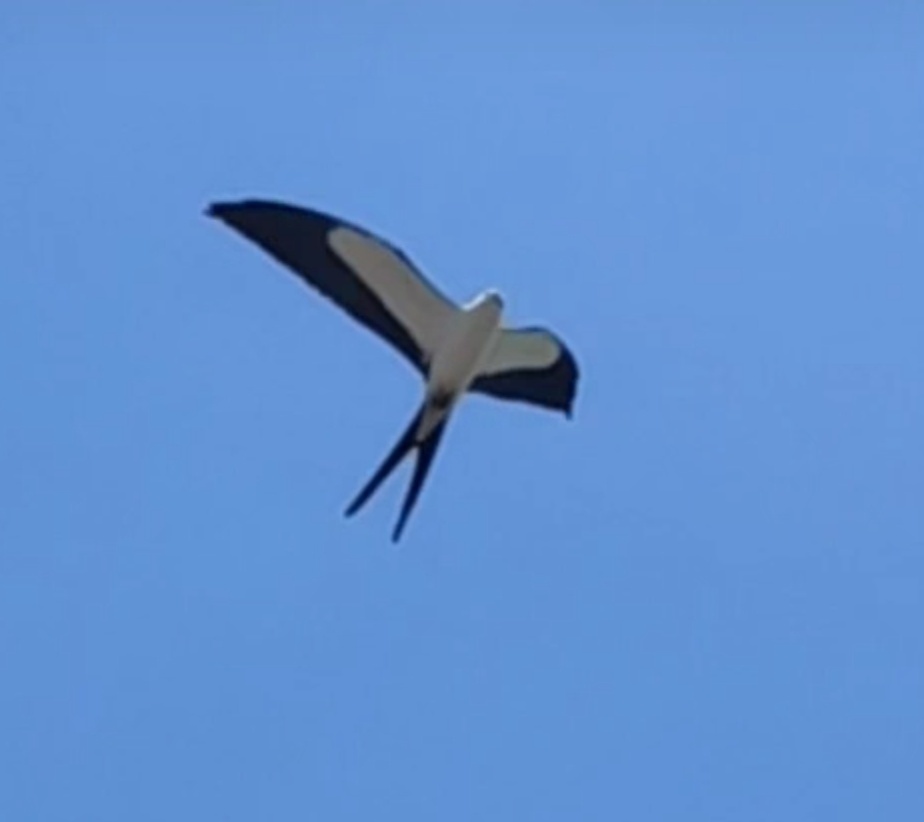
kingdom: Animalia
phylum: Chordata
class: Aves
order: Accipitriformes
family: Accipitridae
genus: Elanoides
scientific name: Elanoides forficatus
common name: Swallow-tailed kite
